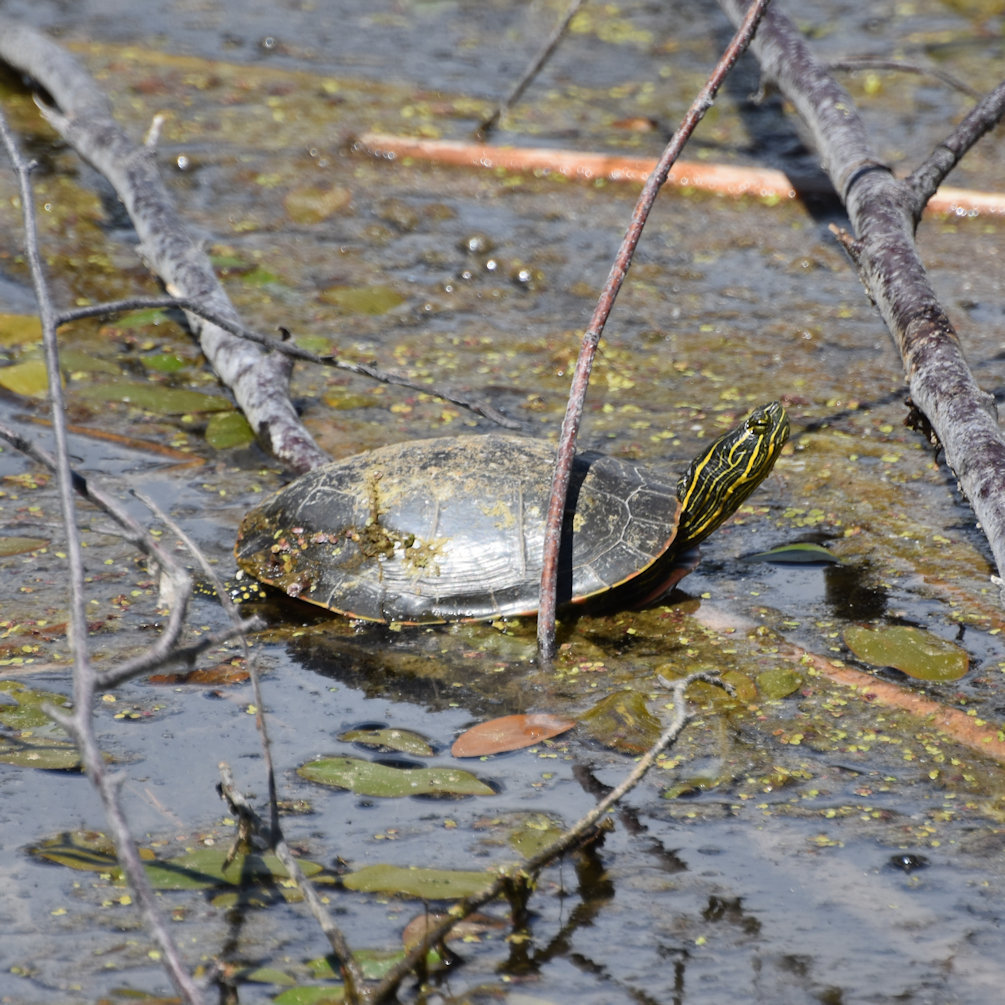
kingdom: Animalia
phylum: Chordata
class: Testudines
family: Emydidae
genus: Chrysemys
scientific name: Chrysemys picta
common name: Painted turtle
